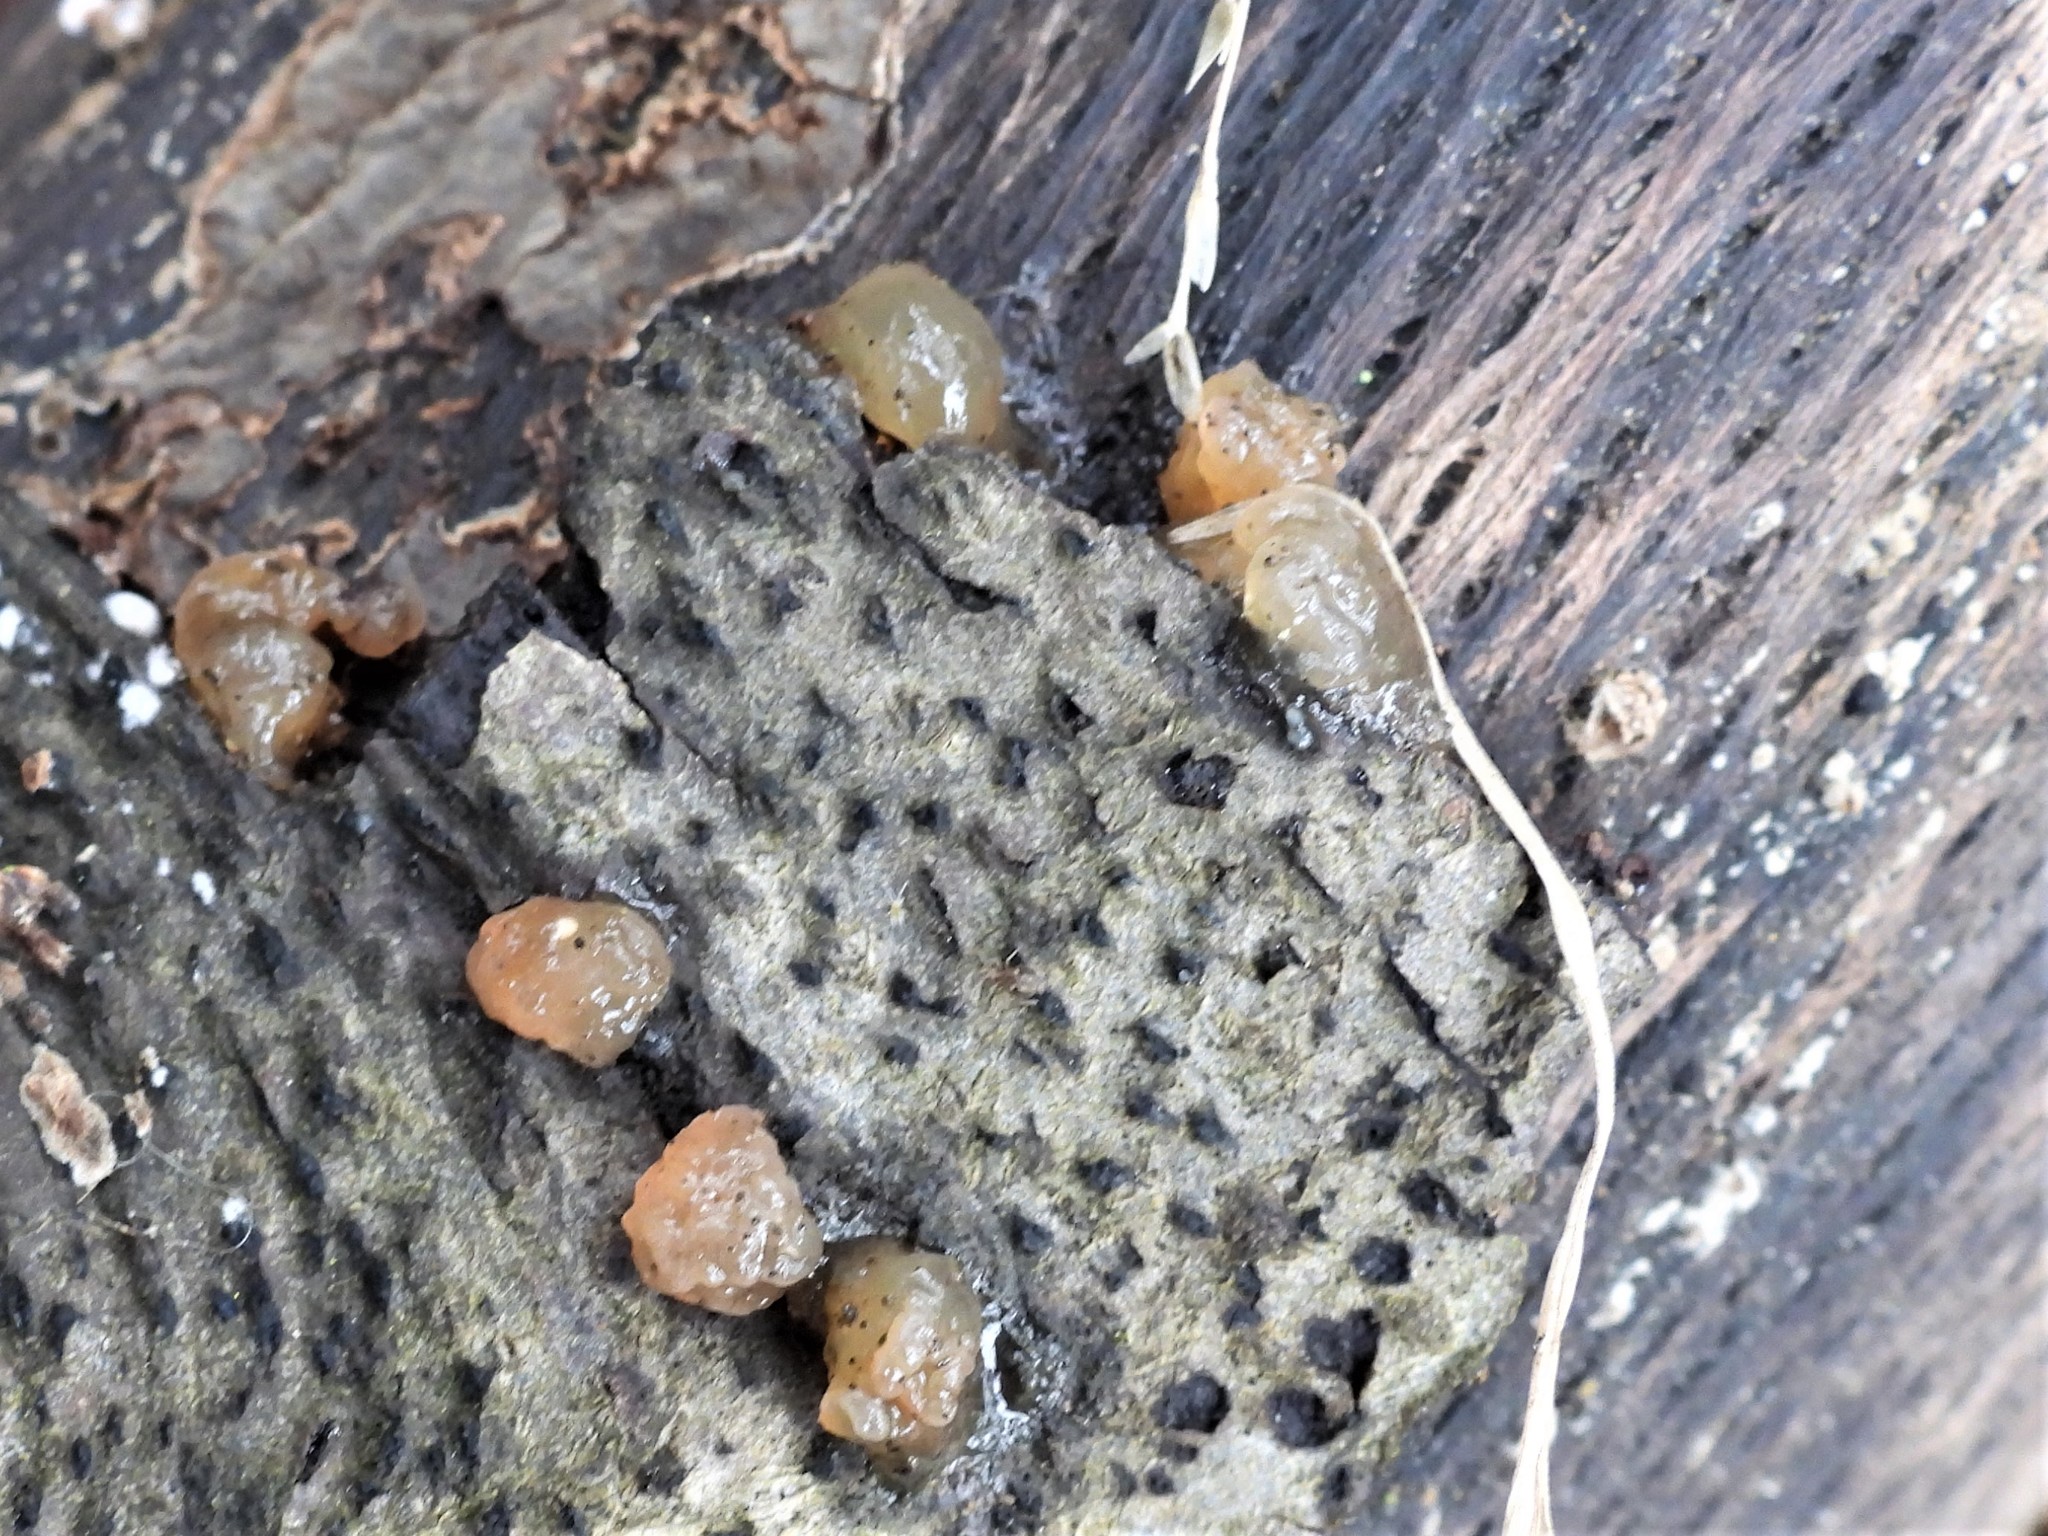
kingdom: Fungi
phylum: Basidiomycota
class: Agaricomycetes
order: Auriculariales
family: Hyaloriaceae
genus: Myxarium
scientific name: Myxarium nucleatum
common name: Crystal brain fungus
